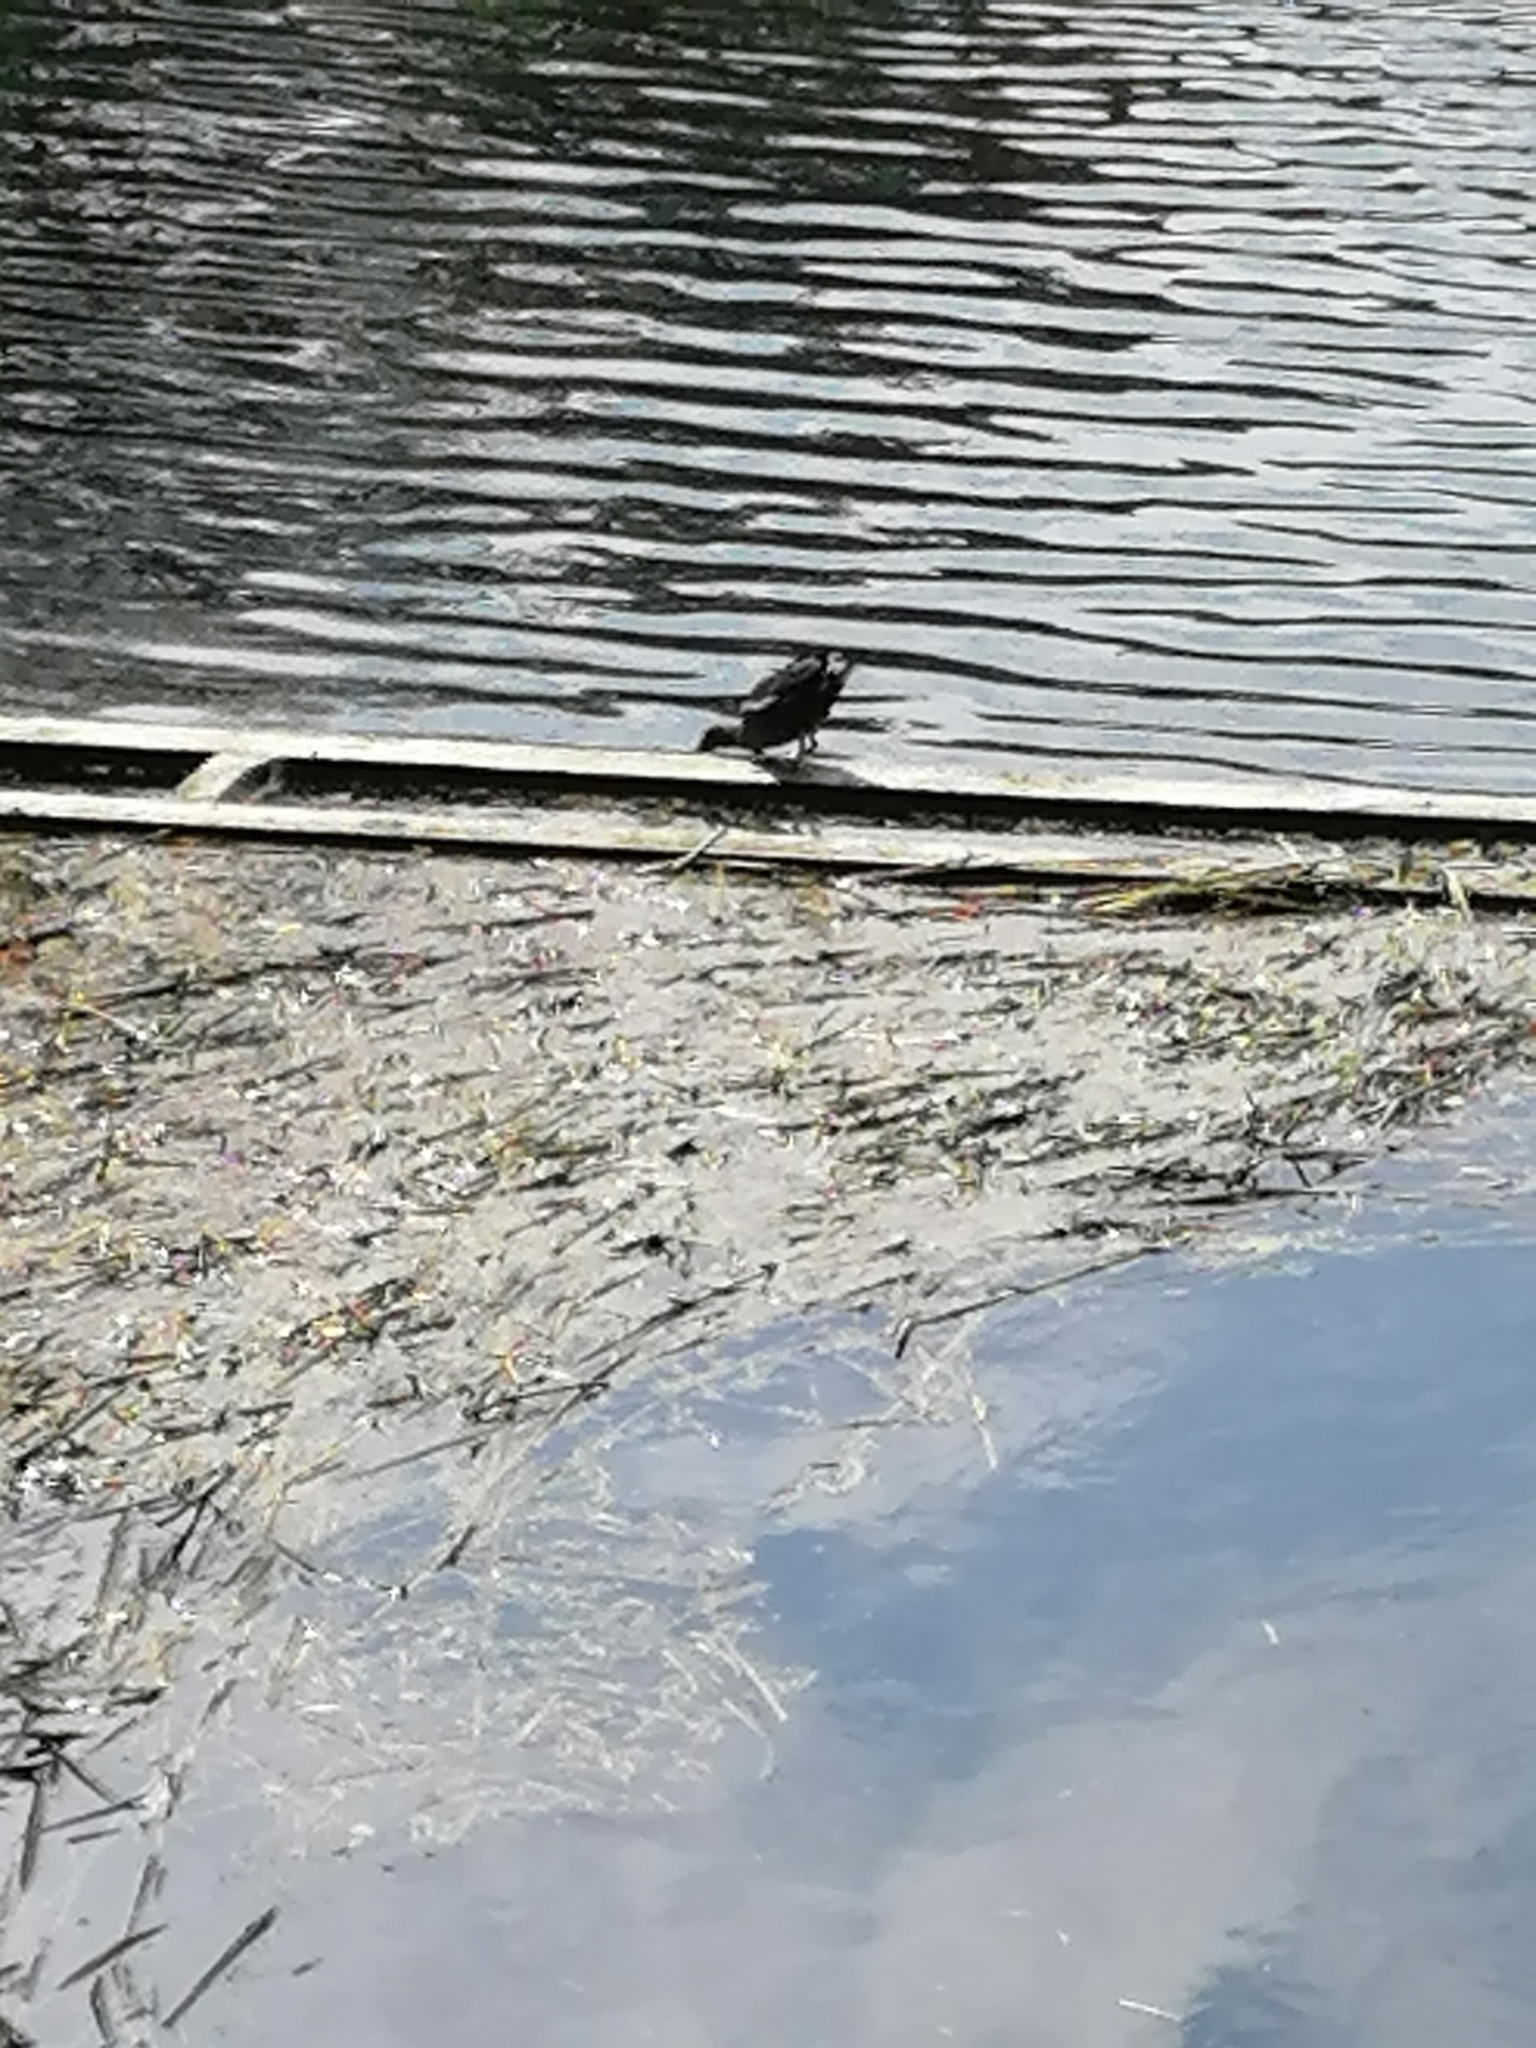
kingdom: Animalia
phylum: Chordata
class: Aves
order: Gruiformes
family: Rallidae
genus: Gallinula
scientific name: Gallinula chloropus
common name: Common moorhen
